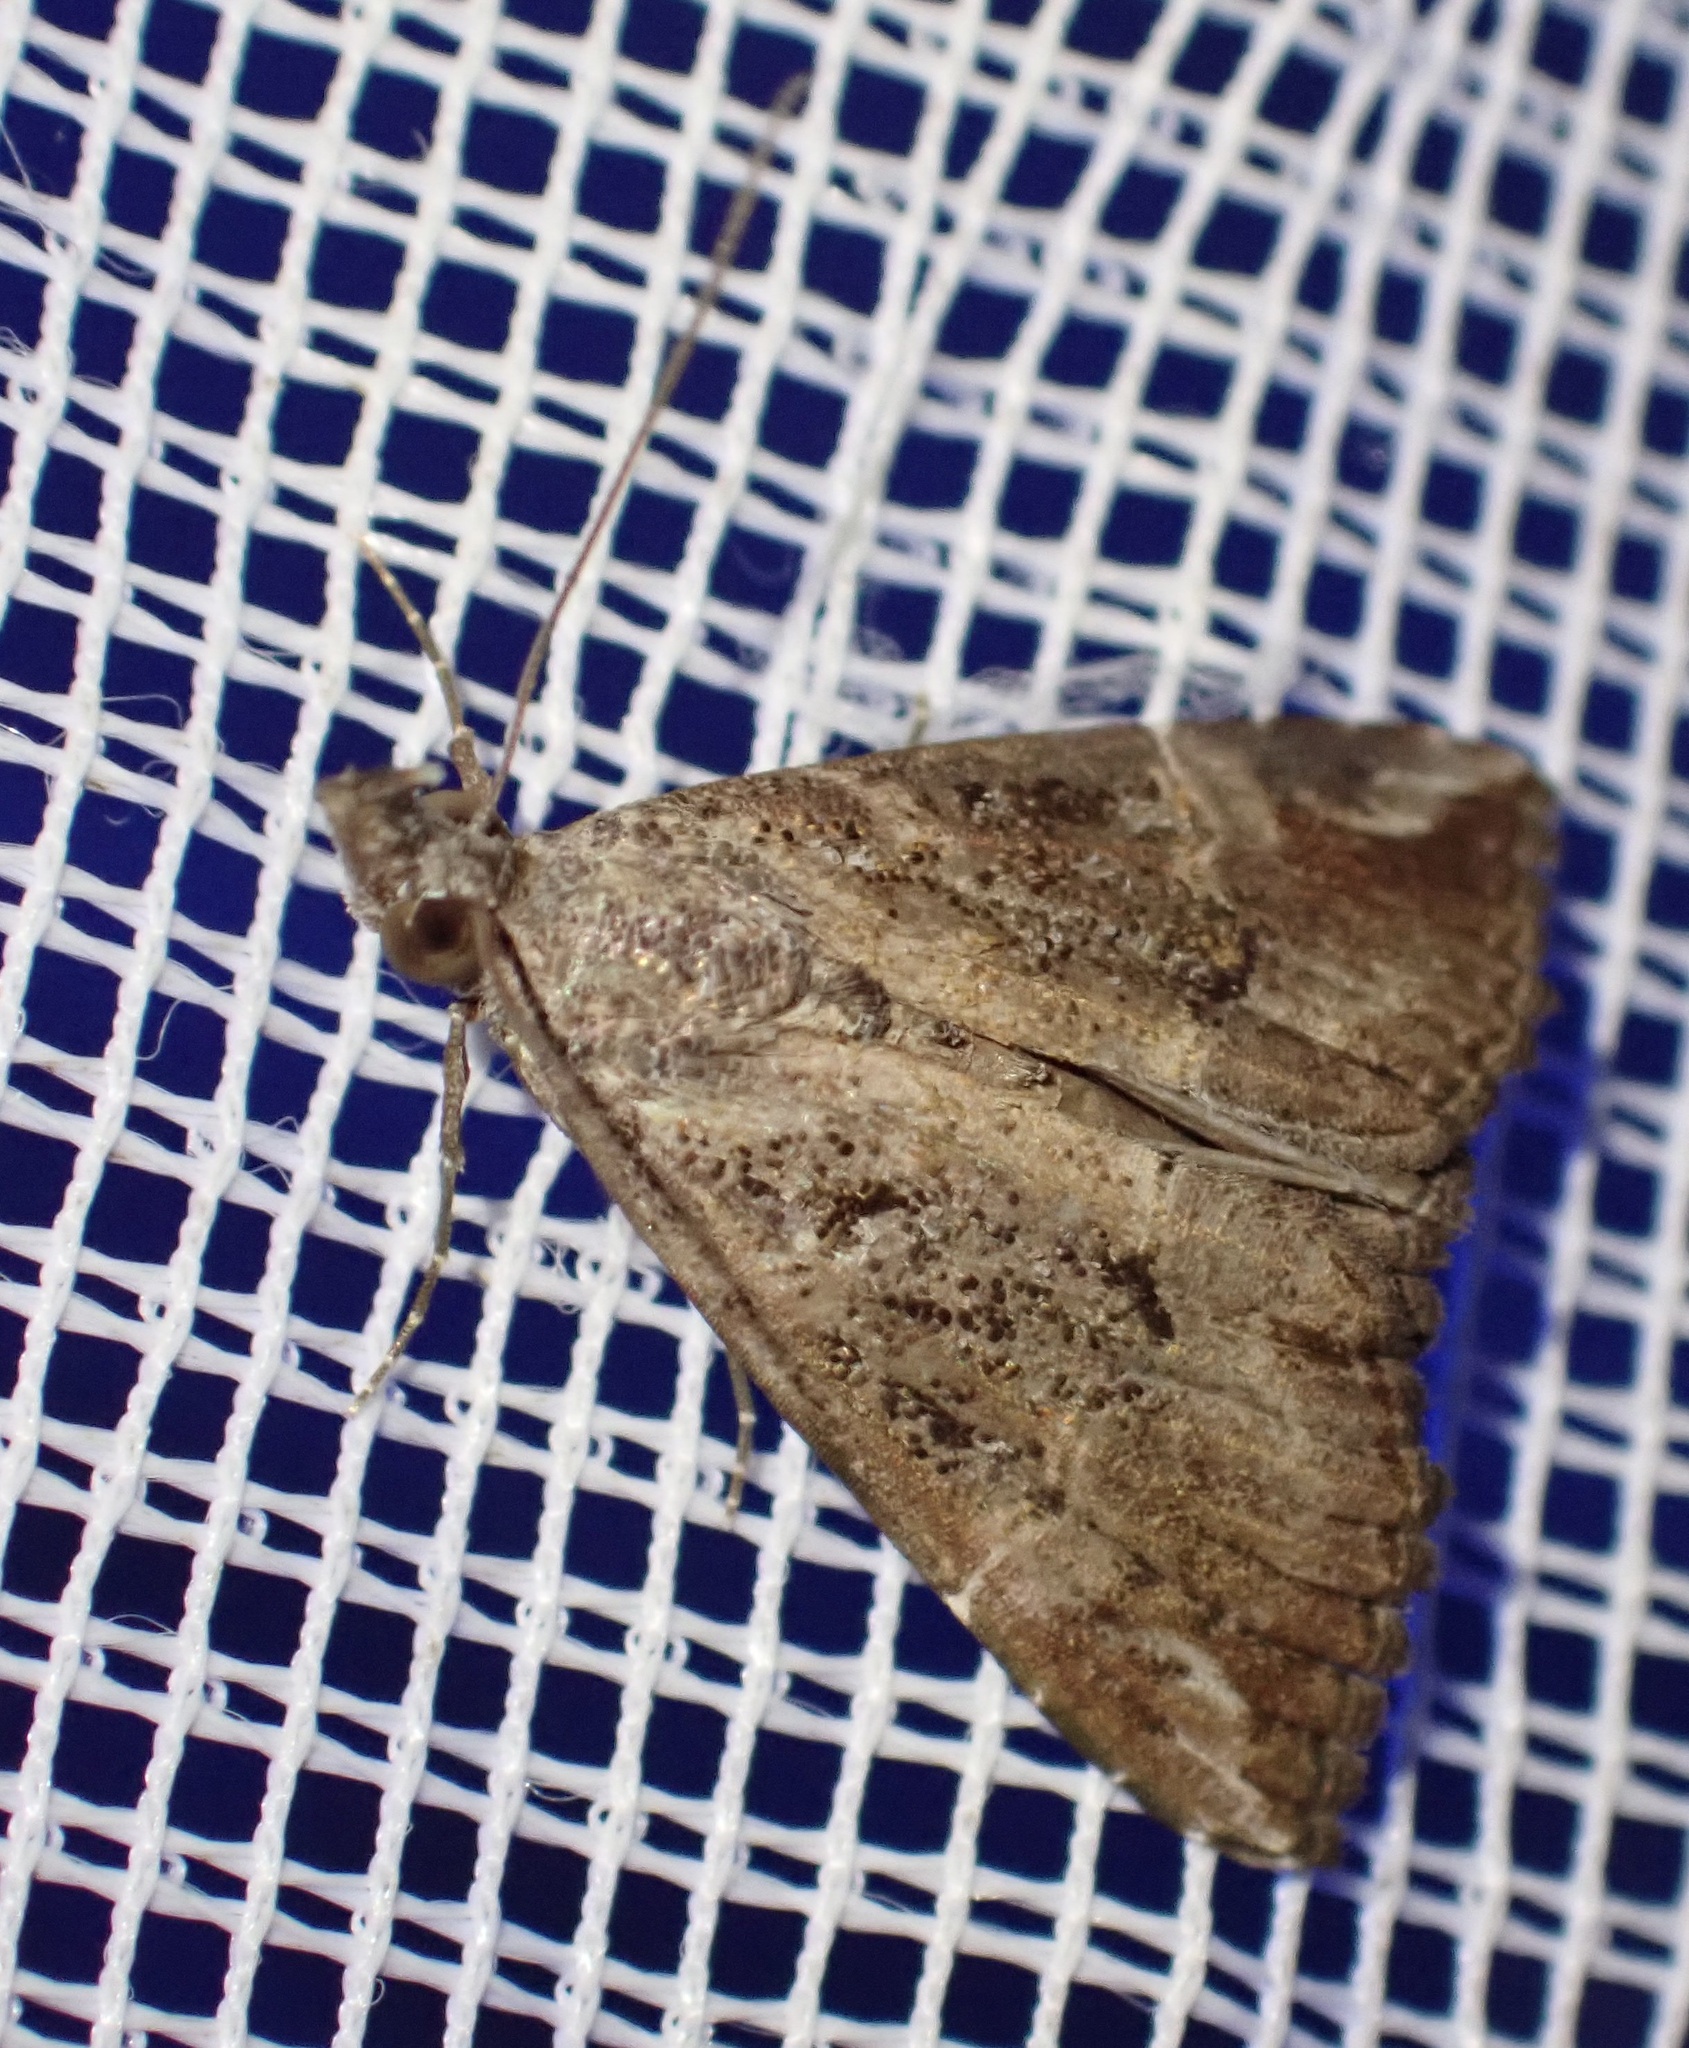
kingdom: Animalia
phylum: Arthropoda
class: Insecta
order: Lepidoptera
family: Erebidae
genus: Hypena
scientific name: Hypena commixtalis
